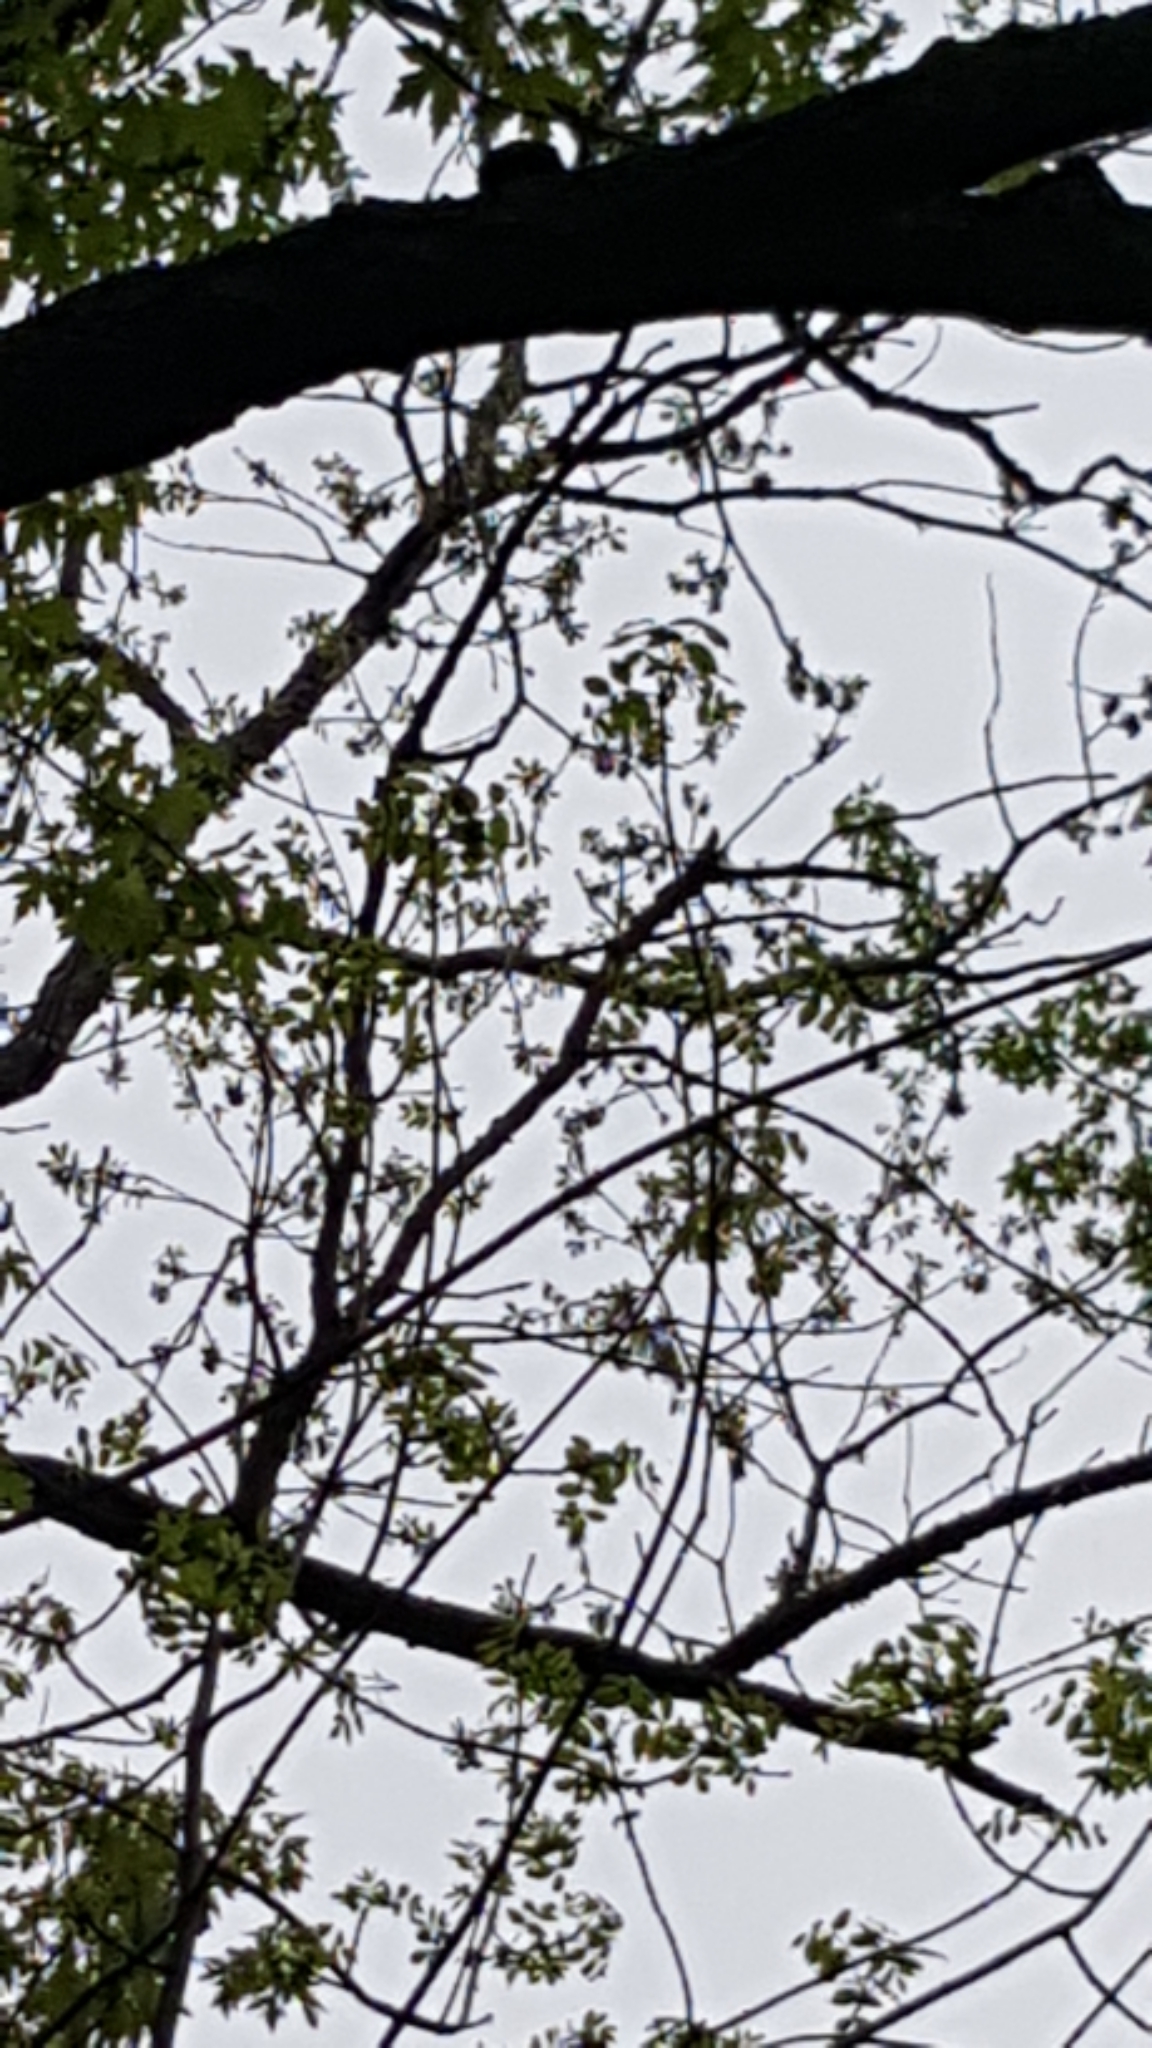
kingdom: Plantae
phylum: Tracheophyta
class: Magnoliopsida
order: Lamiales
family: Oleaceae
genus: Fraxinus
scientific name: Fraxinus pennsylvanica
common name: Green ash
